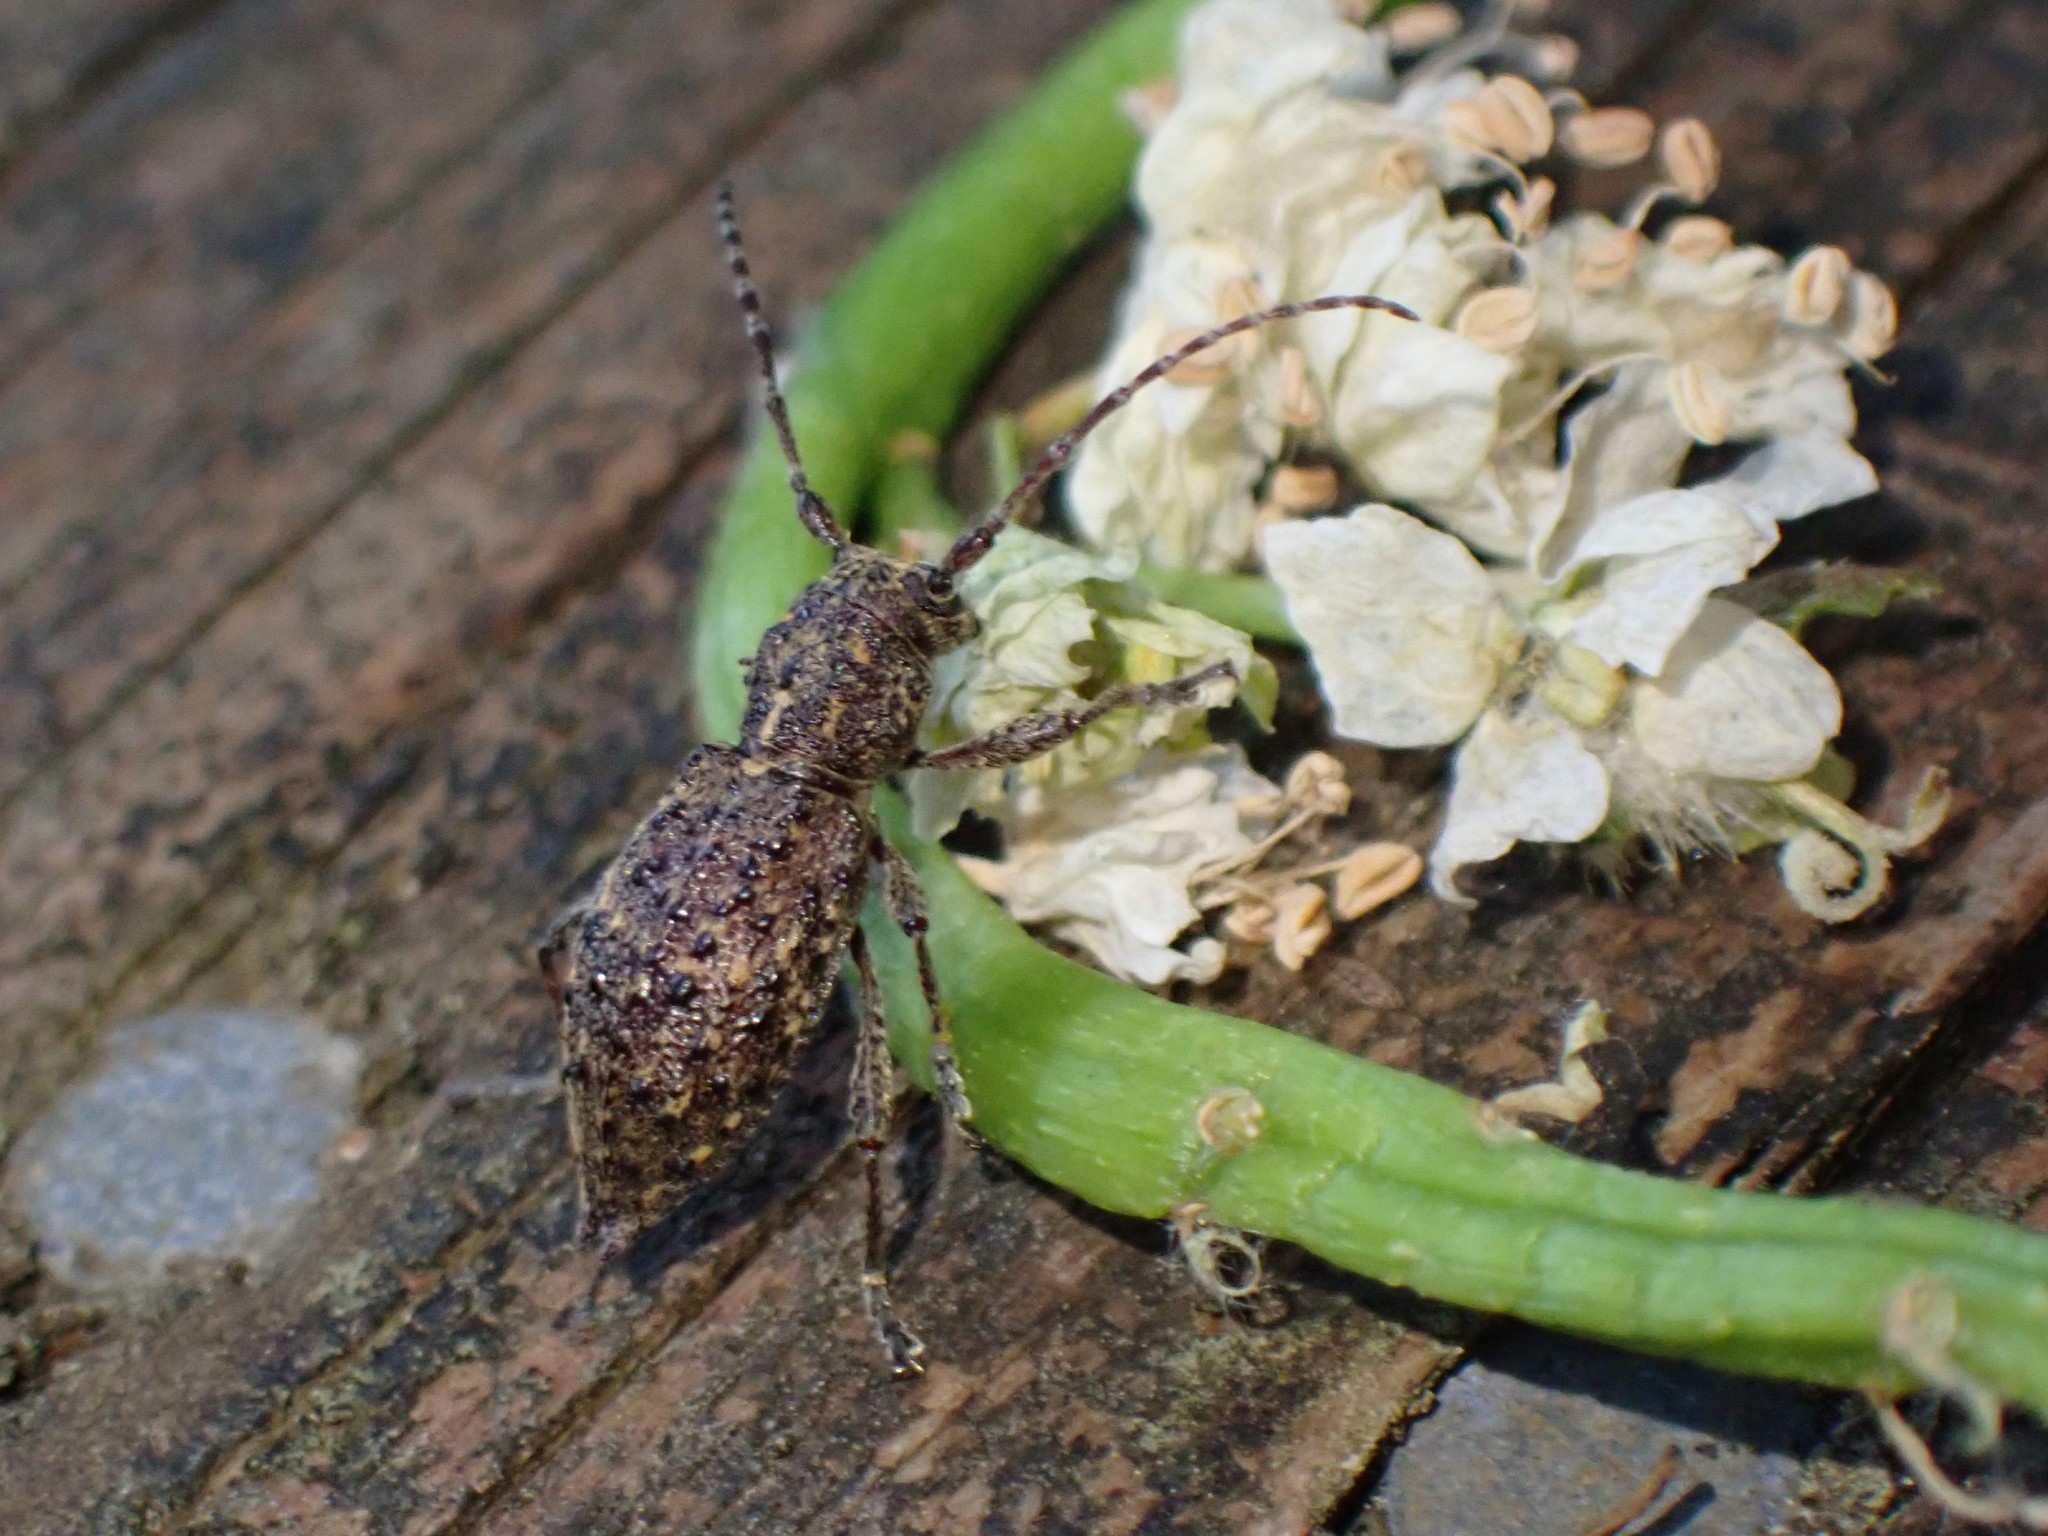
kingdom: Animalia
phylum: Arthropoda
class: Insecta
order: Coleoptera
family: Cerambycidae
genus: Plectrura
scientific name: Plectrura spinicauda
